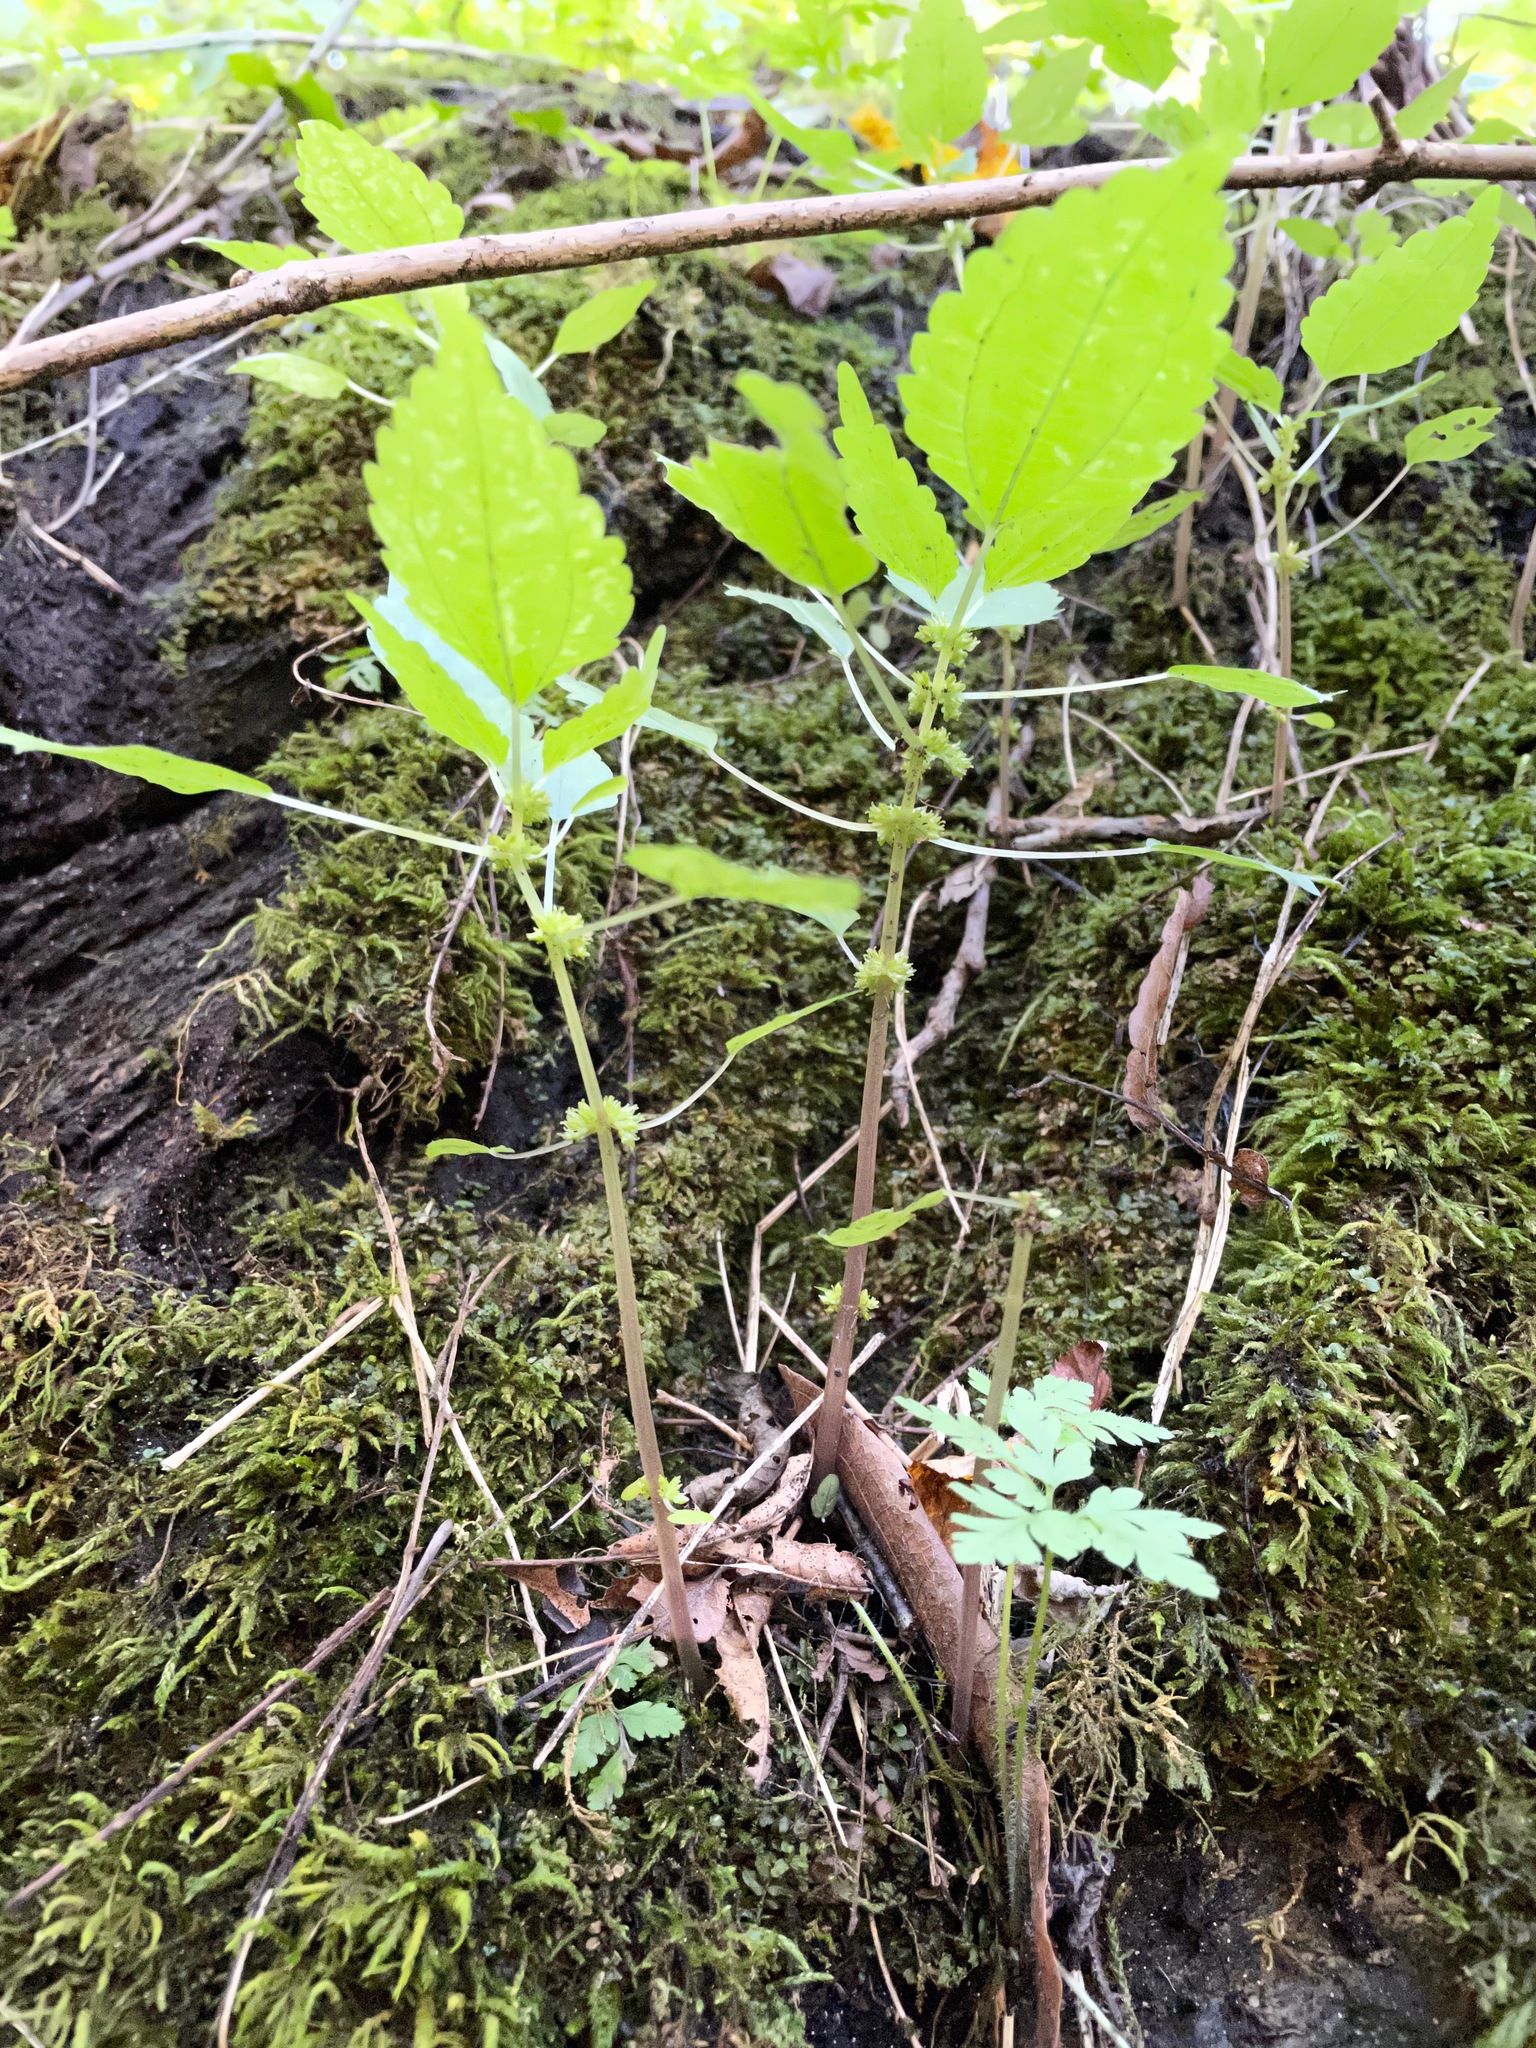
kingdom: Plantae
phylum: Tracheophyta
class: Magnoliopsida
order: Rosales
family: Urticaceae
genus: Pilea
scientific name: Pilea pumila
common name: Clearweed
